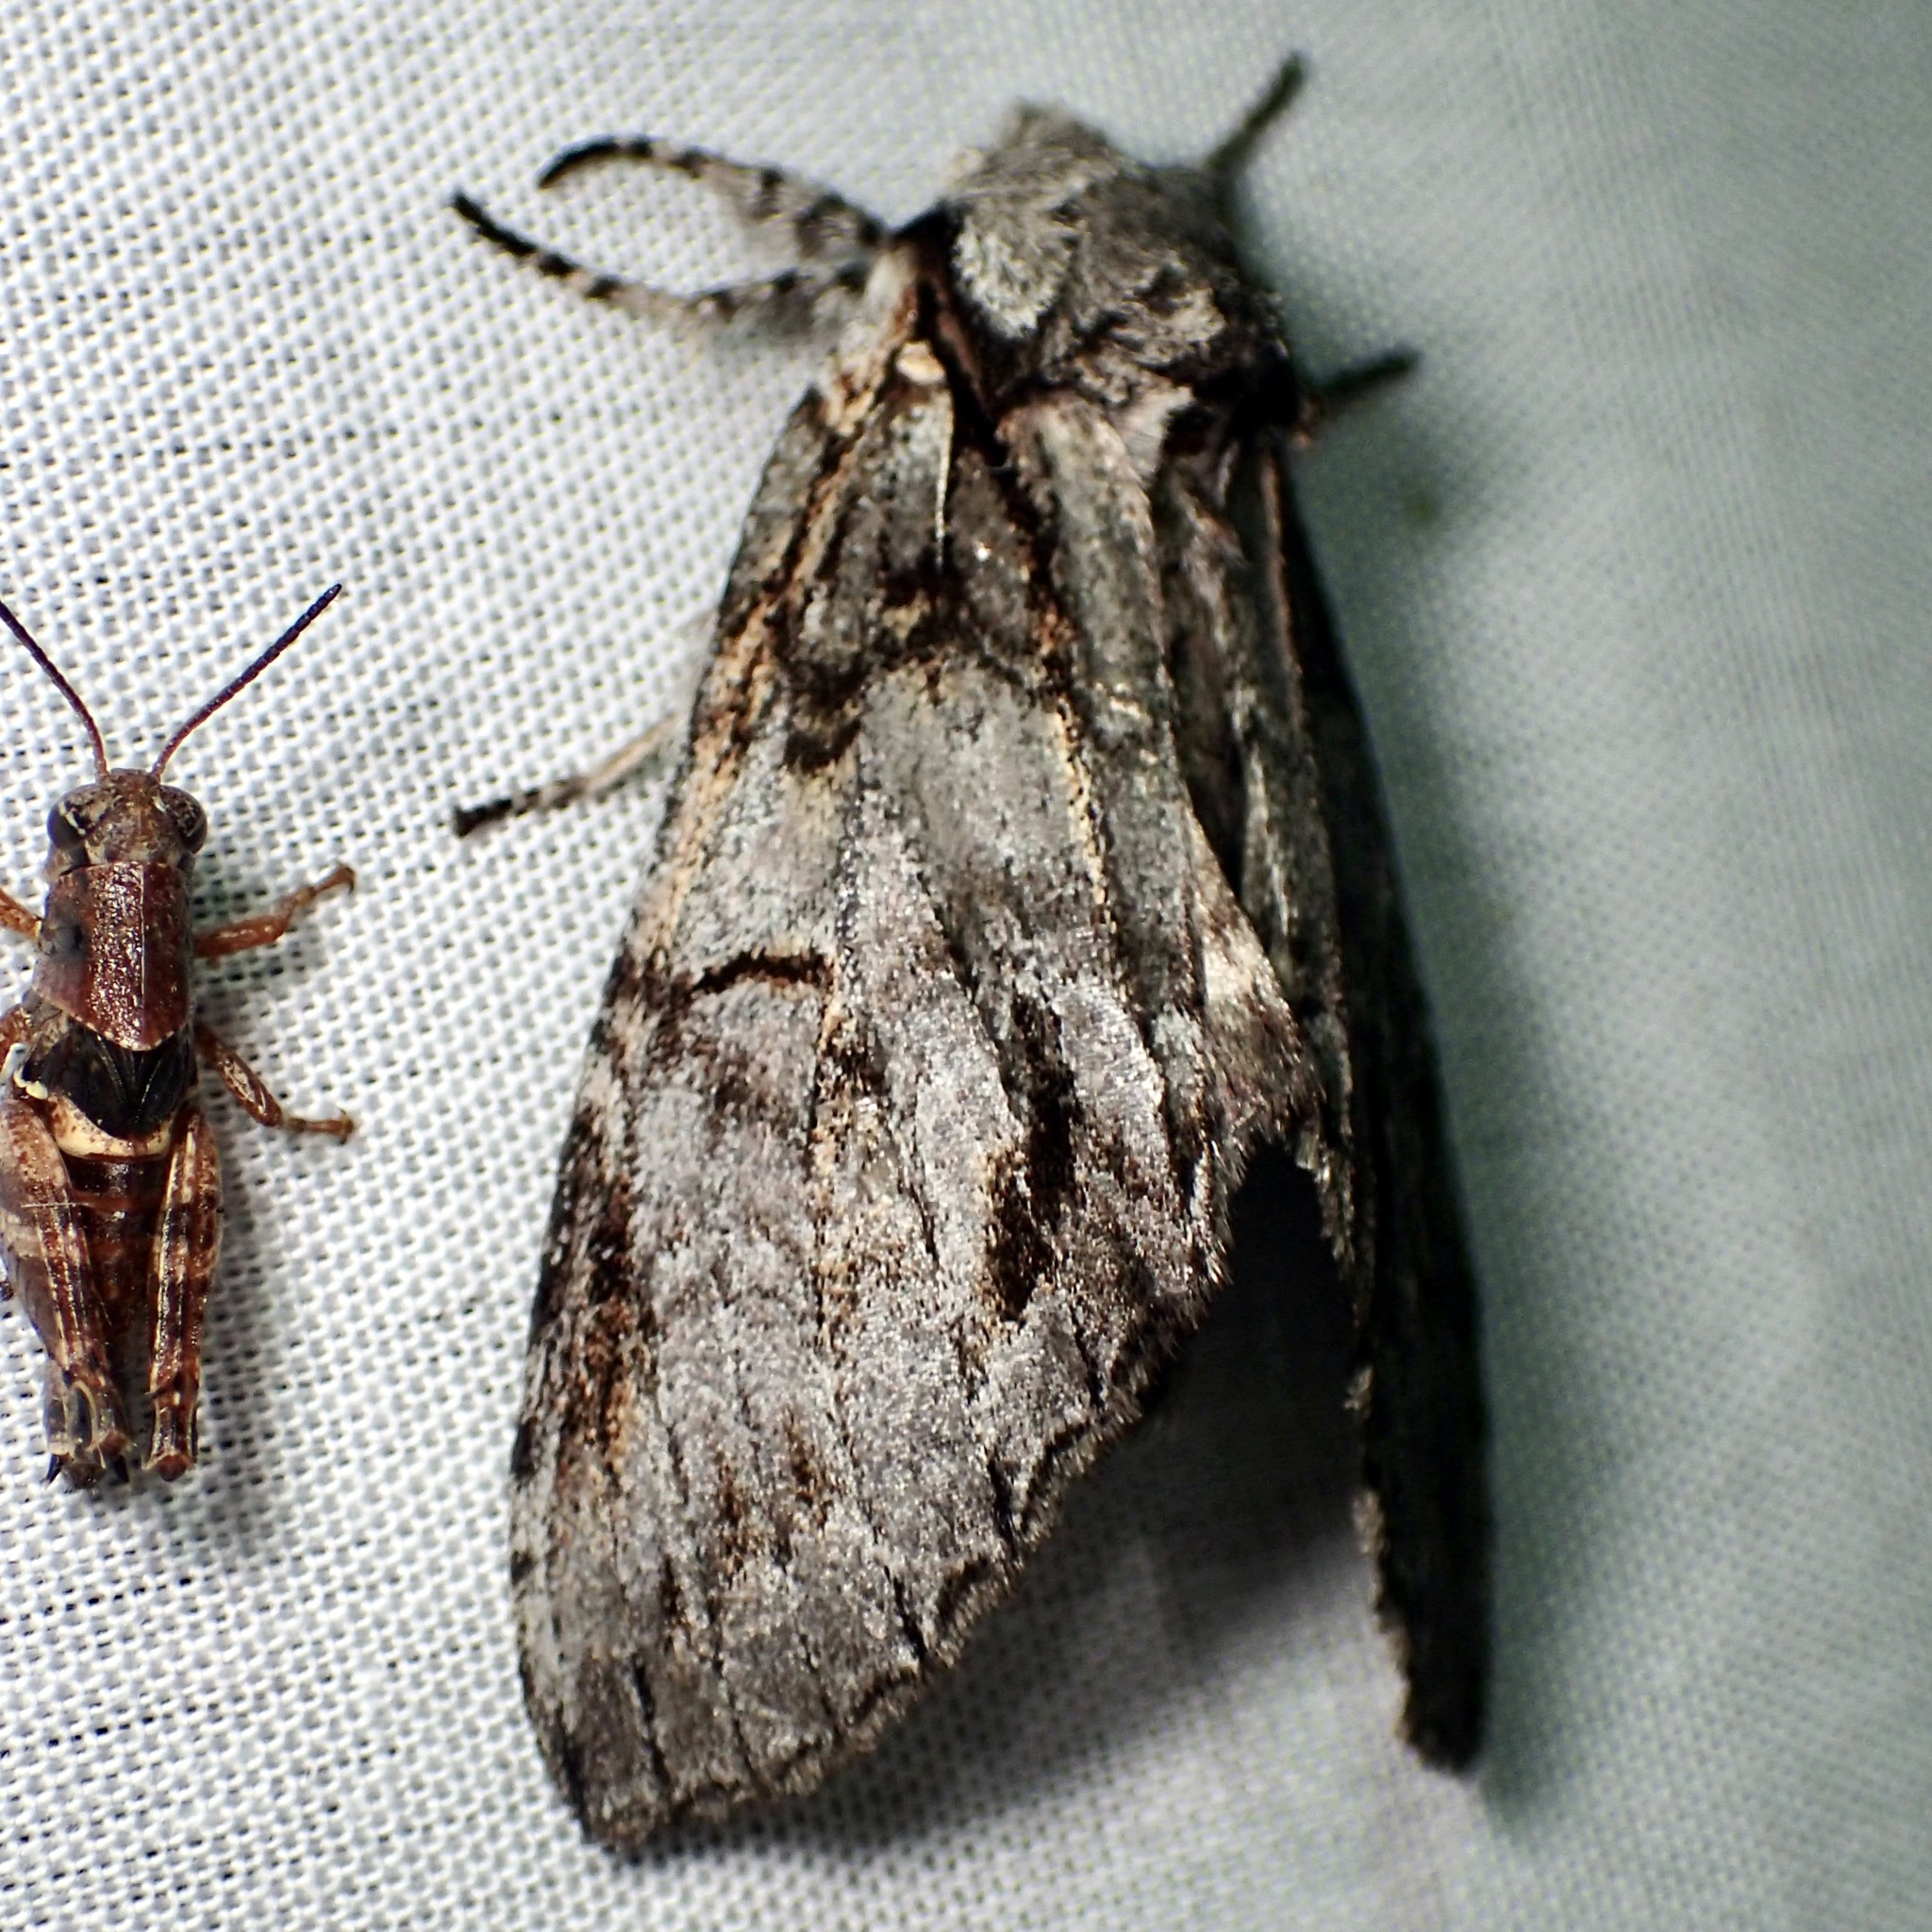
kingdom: Animalia
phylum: Arthropoda
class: Insecta
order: Lepidoptera
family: Notodontidae
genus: Macrurocampa
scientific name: Macrurocampa
